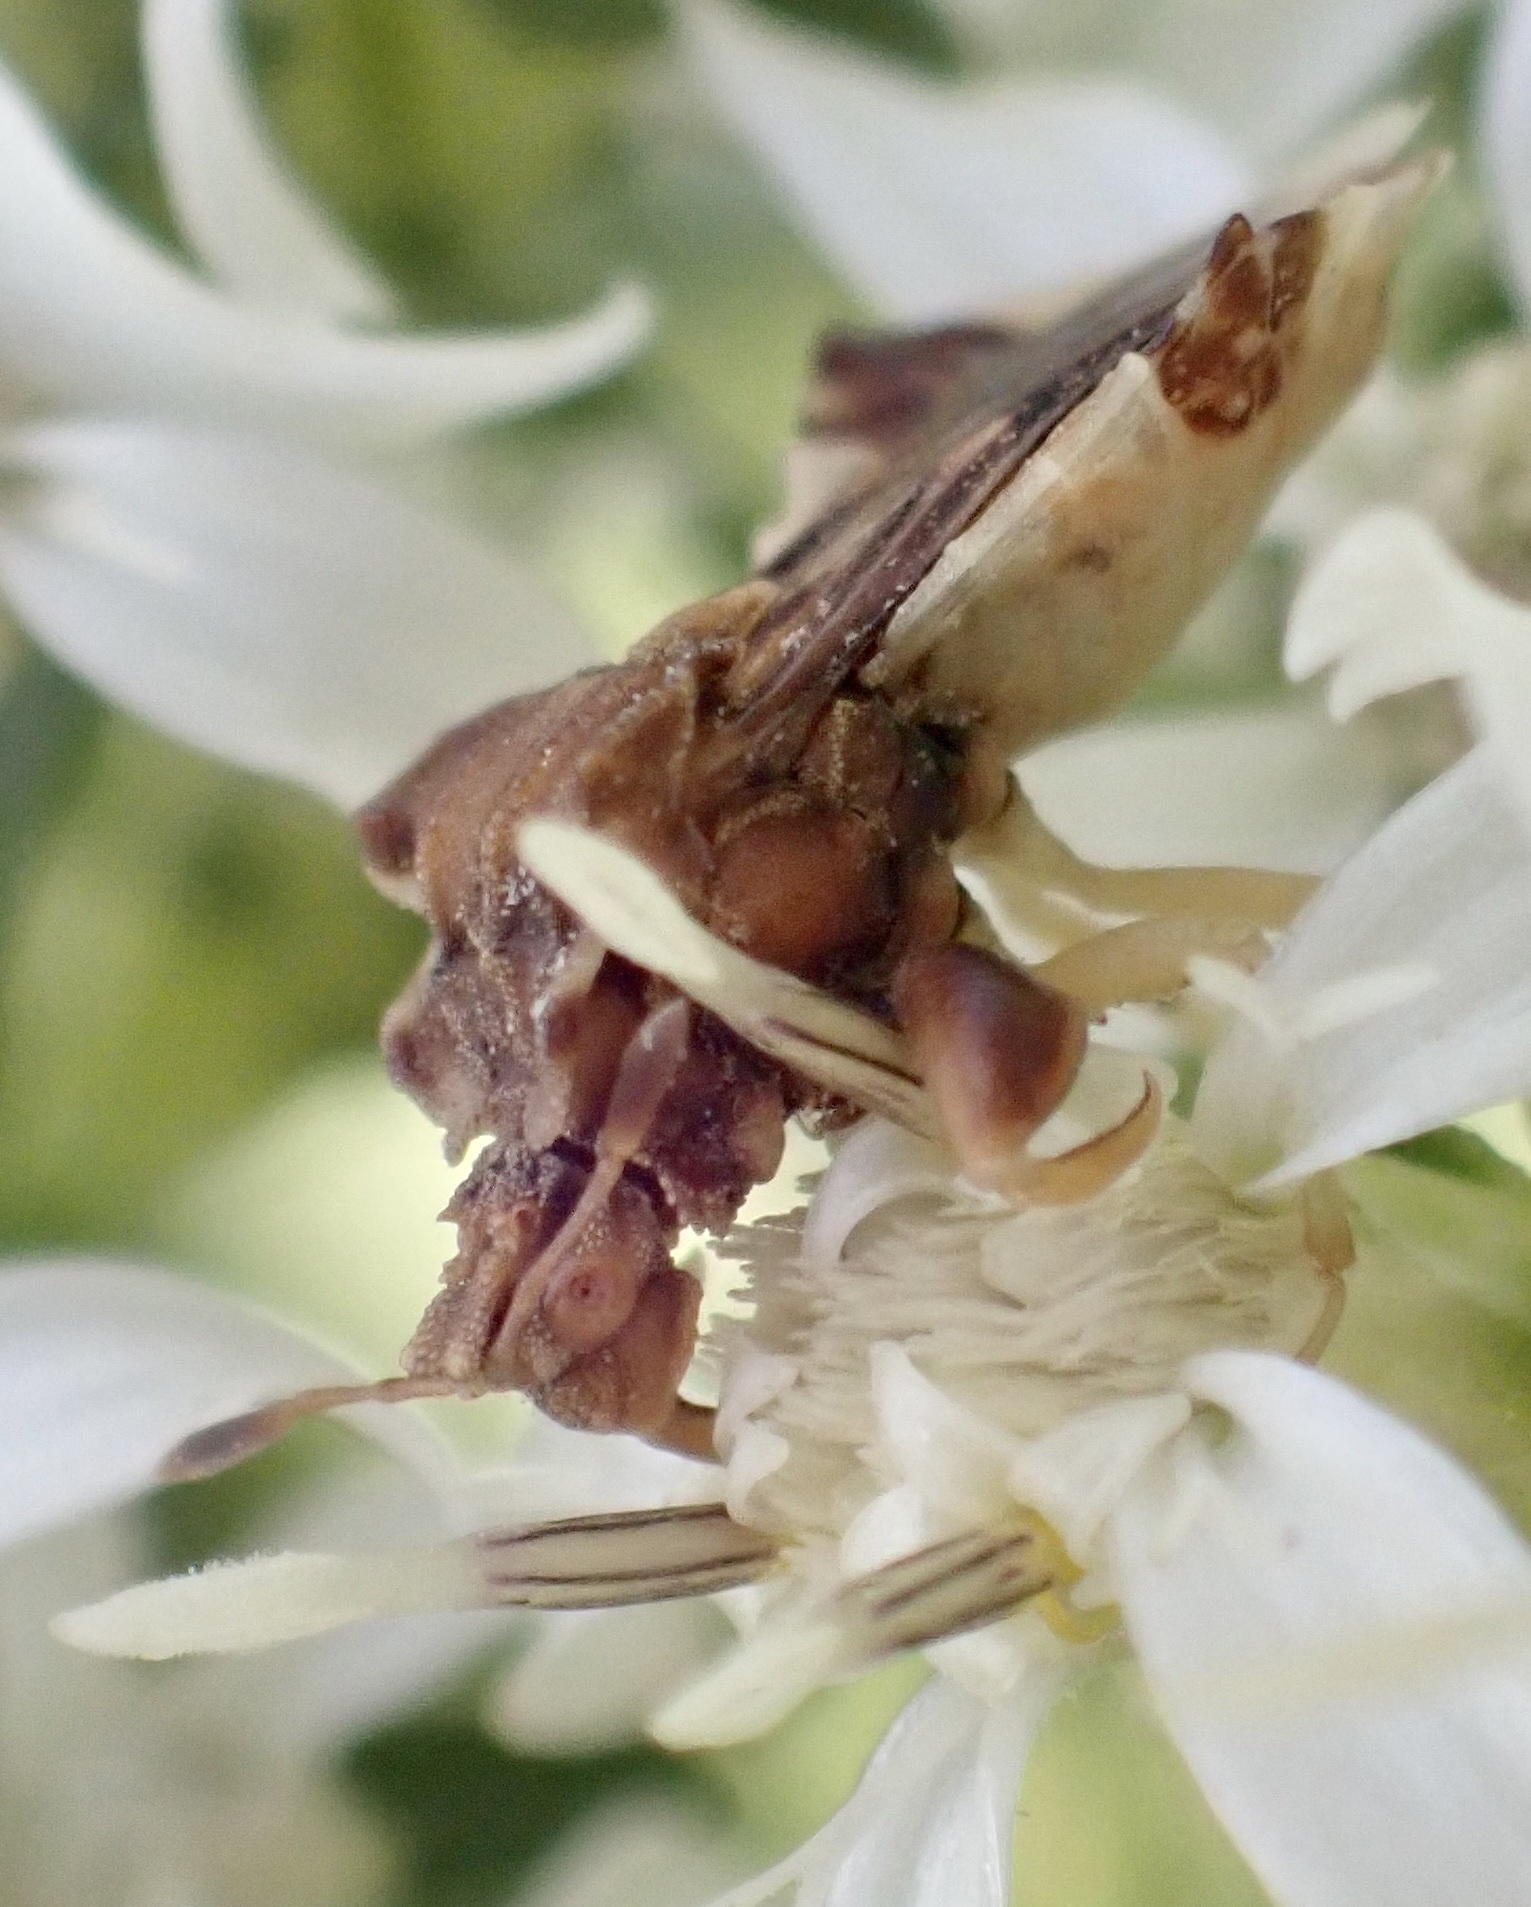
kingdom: Animalia
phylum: Arthropoda
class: Insecta
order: Hemiptera
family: Reduviidae
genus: Phymata
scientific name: Phymata fasciata
